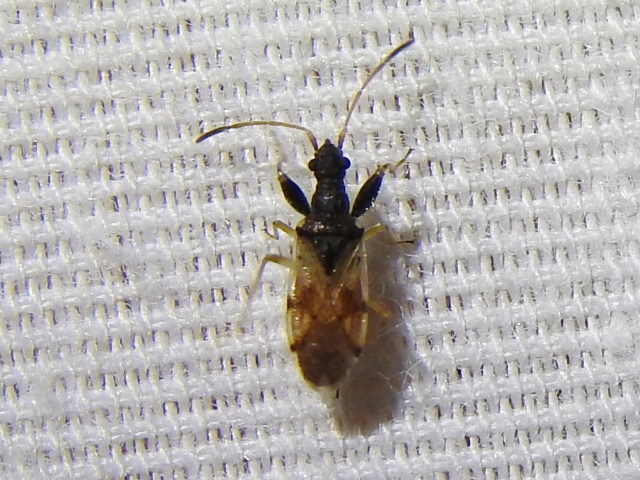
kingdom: Animalia
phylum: Arthropoda
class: Insecta
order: Hemiptera
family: Rhyparochromidae
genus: Pseudopamera
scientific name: Pseudopamera setosa
